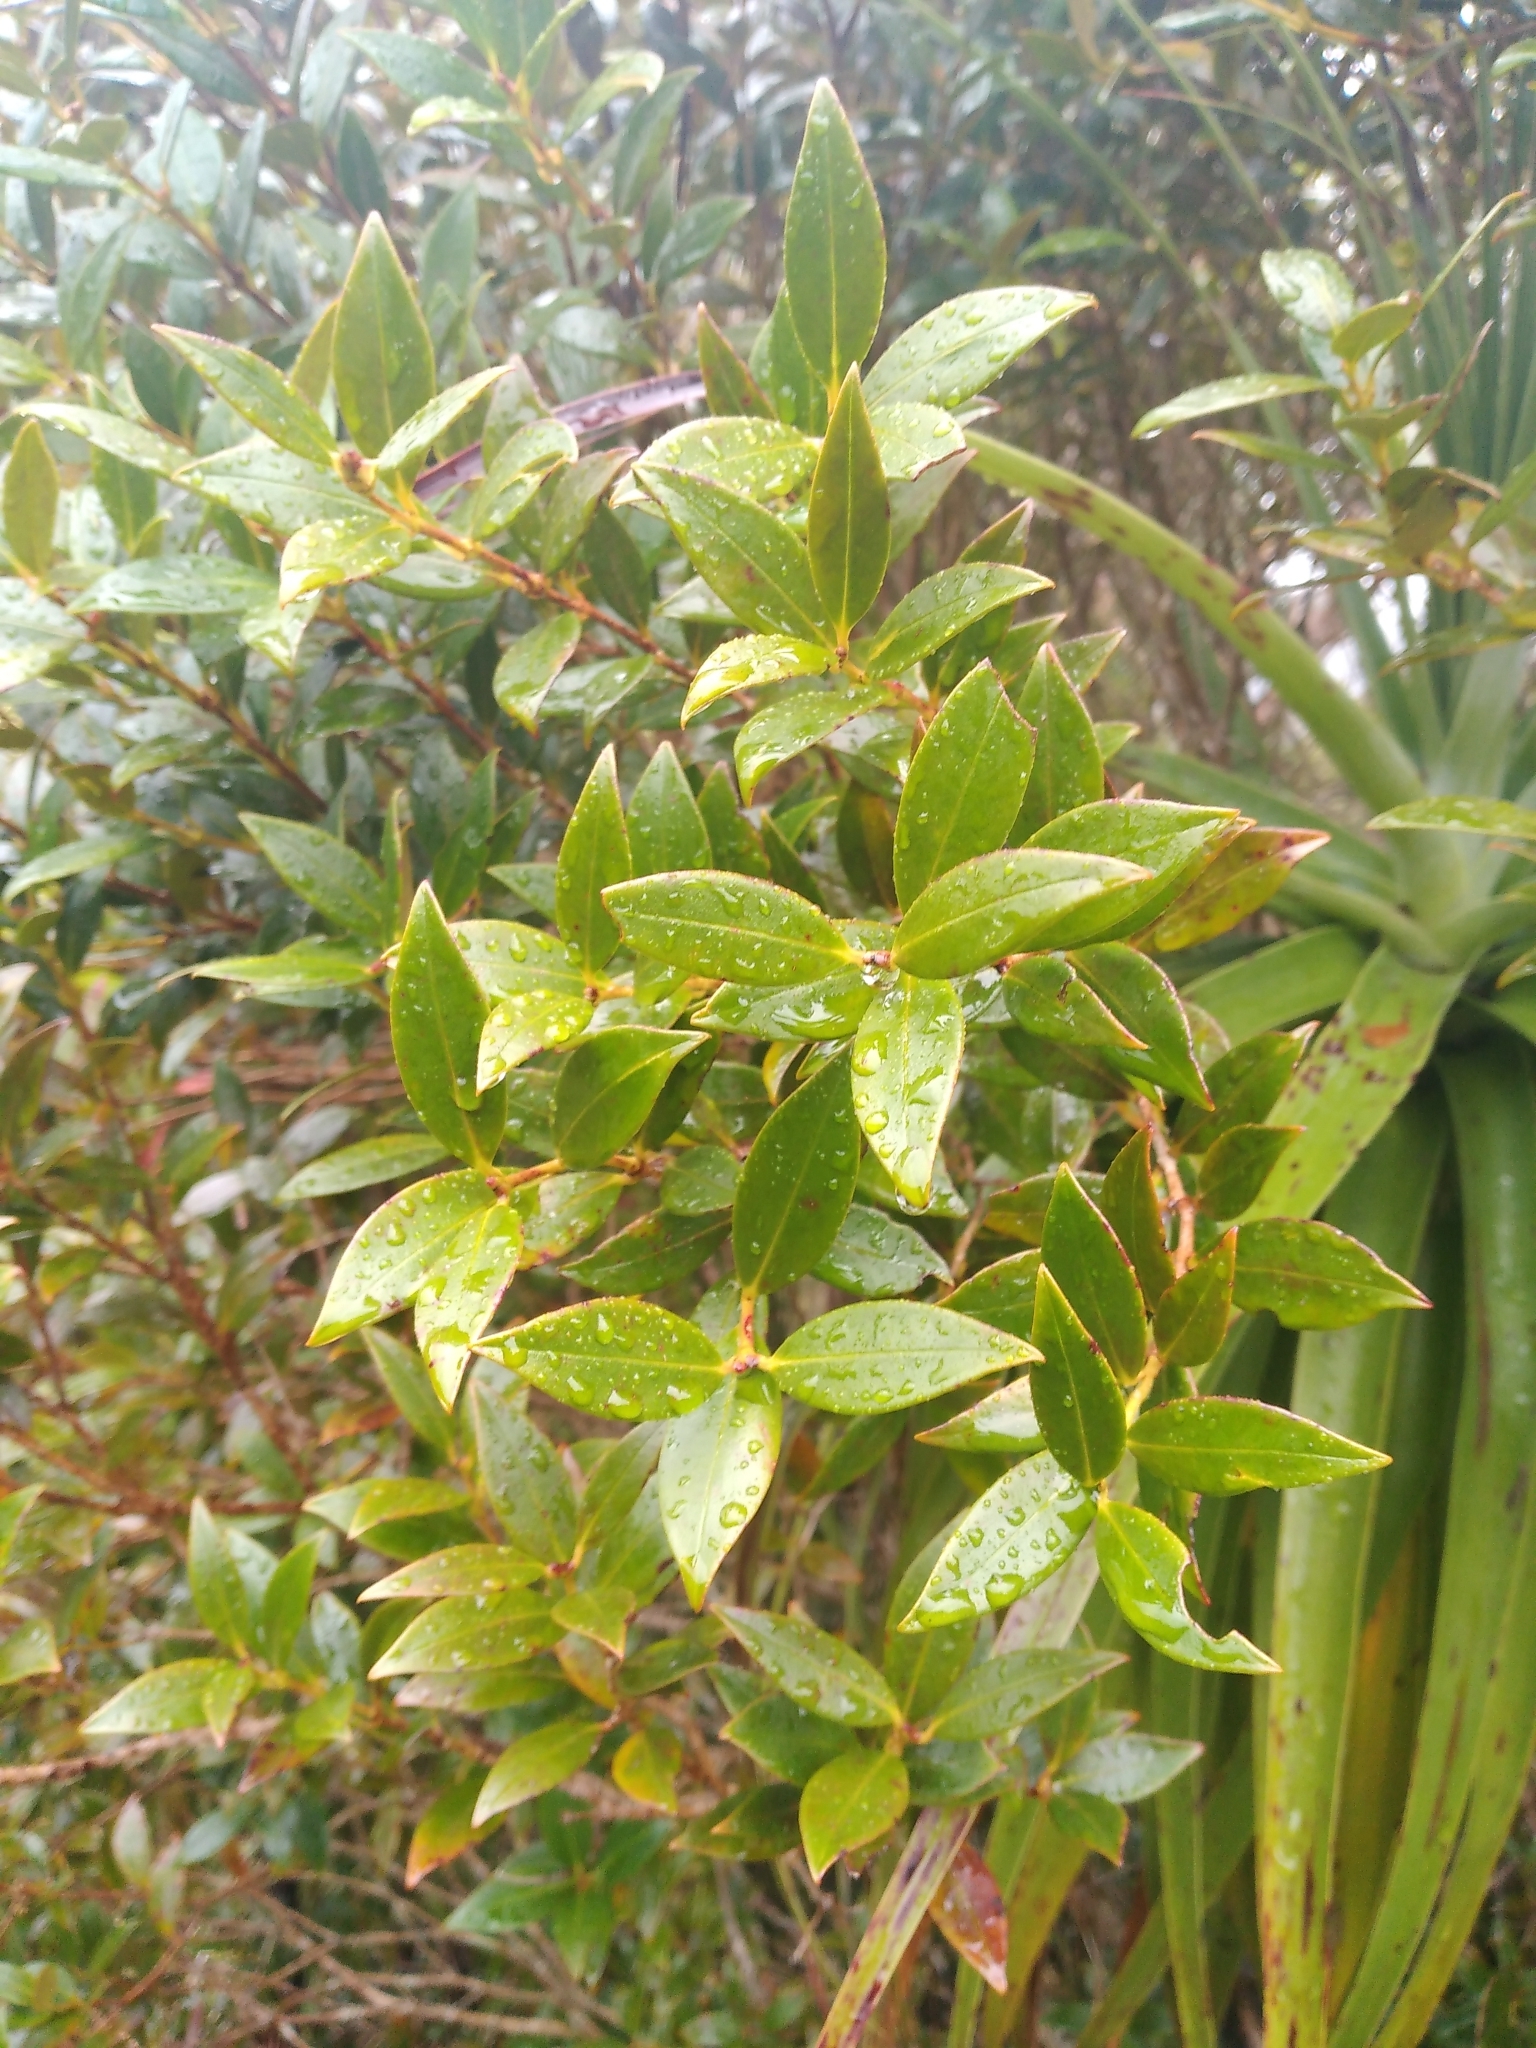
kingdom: Plantae
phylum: Tracheophyta
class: Magnoliopsida
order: Myrtales
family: Myrtaceae
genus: Metrosideros
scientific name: Metrosideros umbellata
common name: Southern rata
